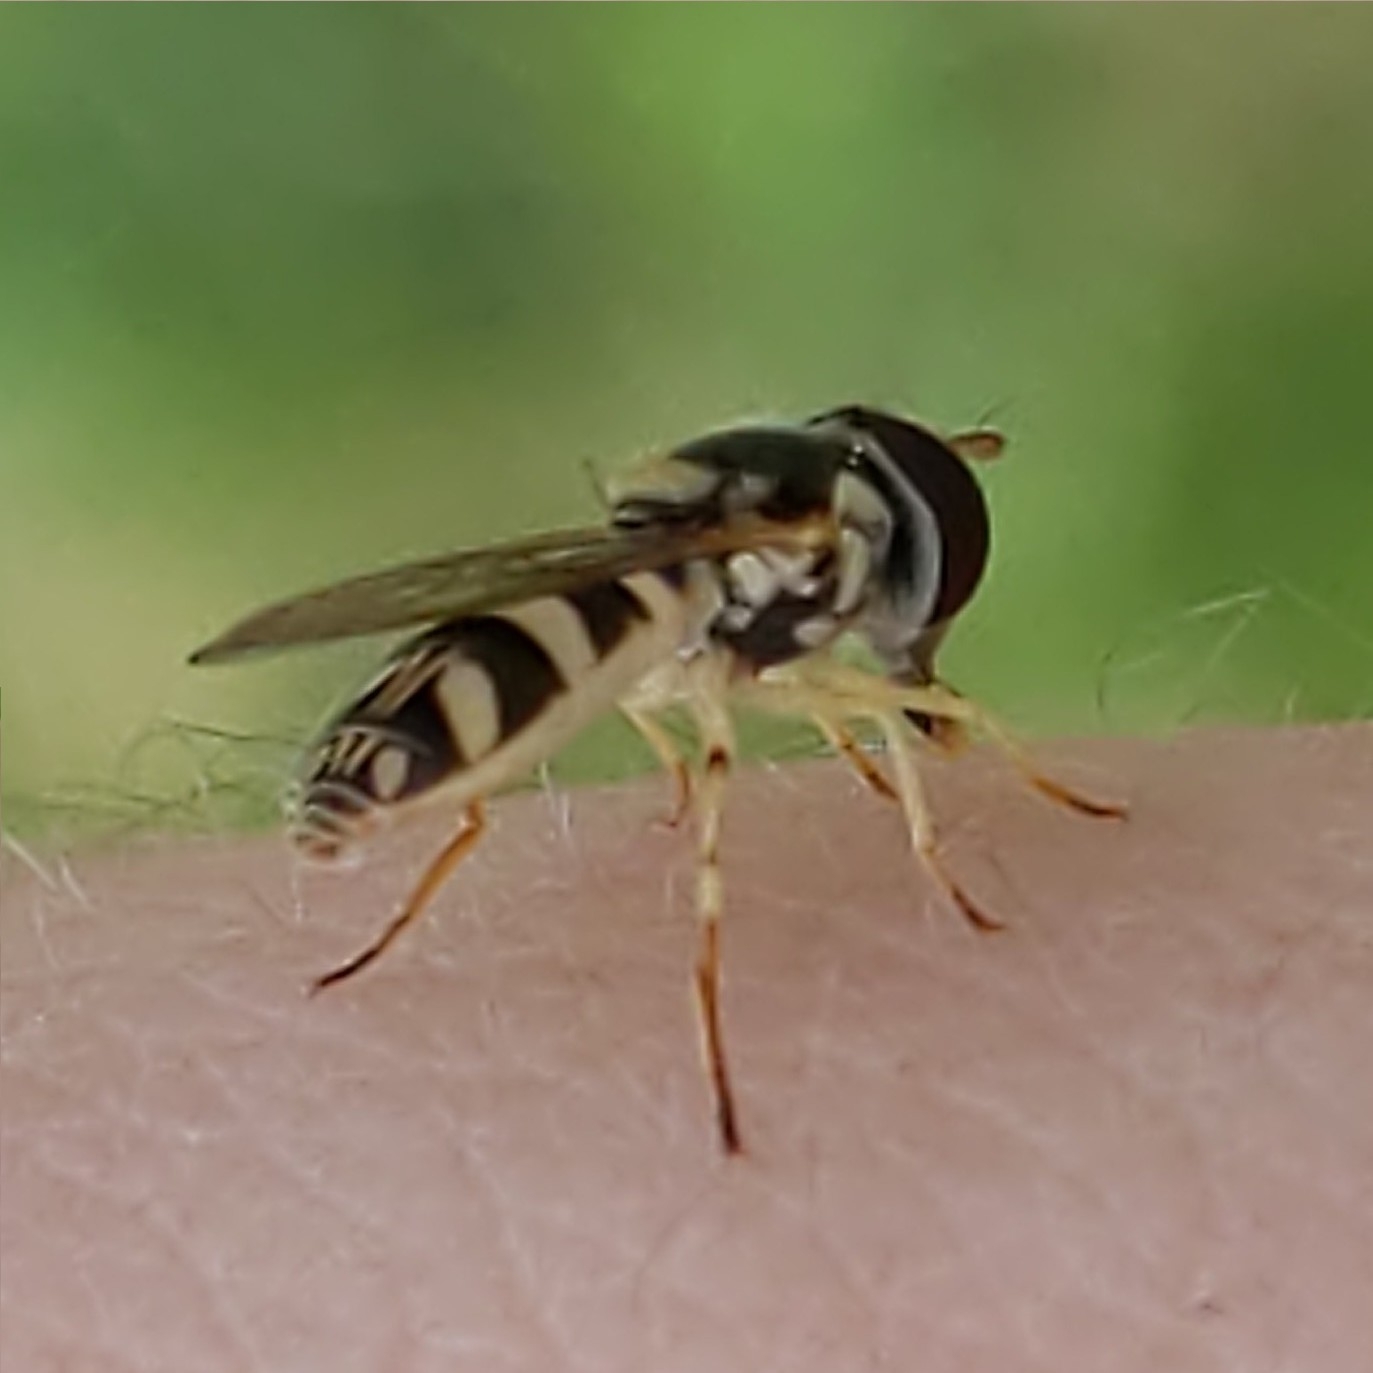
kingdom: Animalia
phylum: Arthropoda
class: Insecta
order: Diptera
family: Syrphidae
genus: Allograpta
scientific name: Allograpta exotica
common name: Syrphid fly
